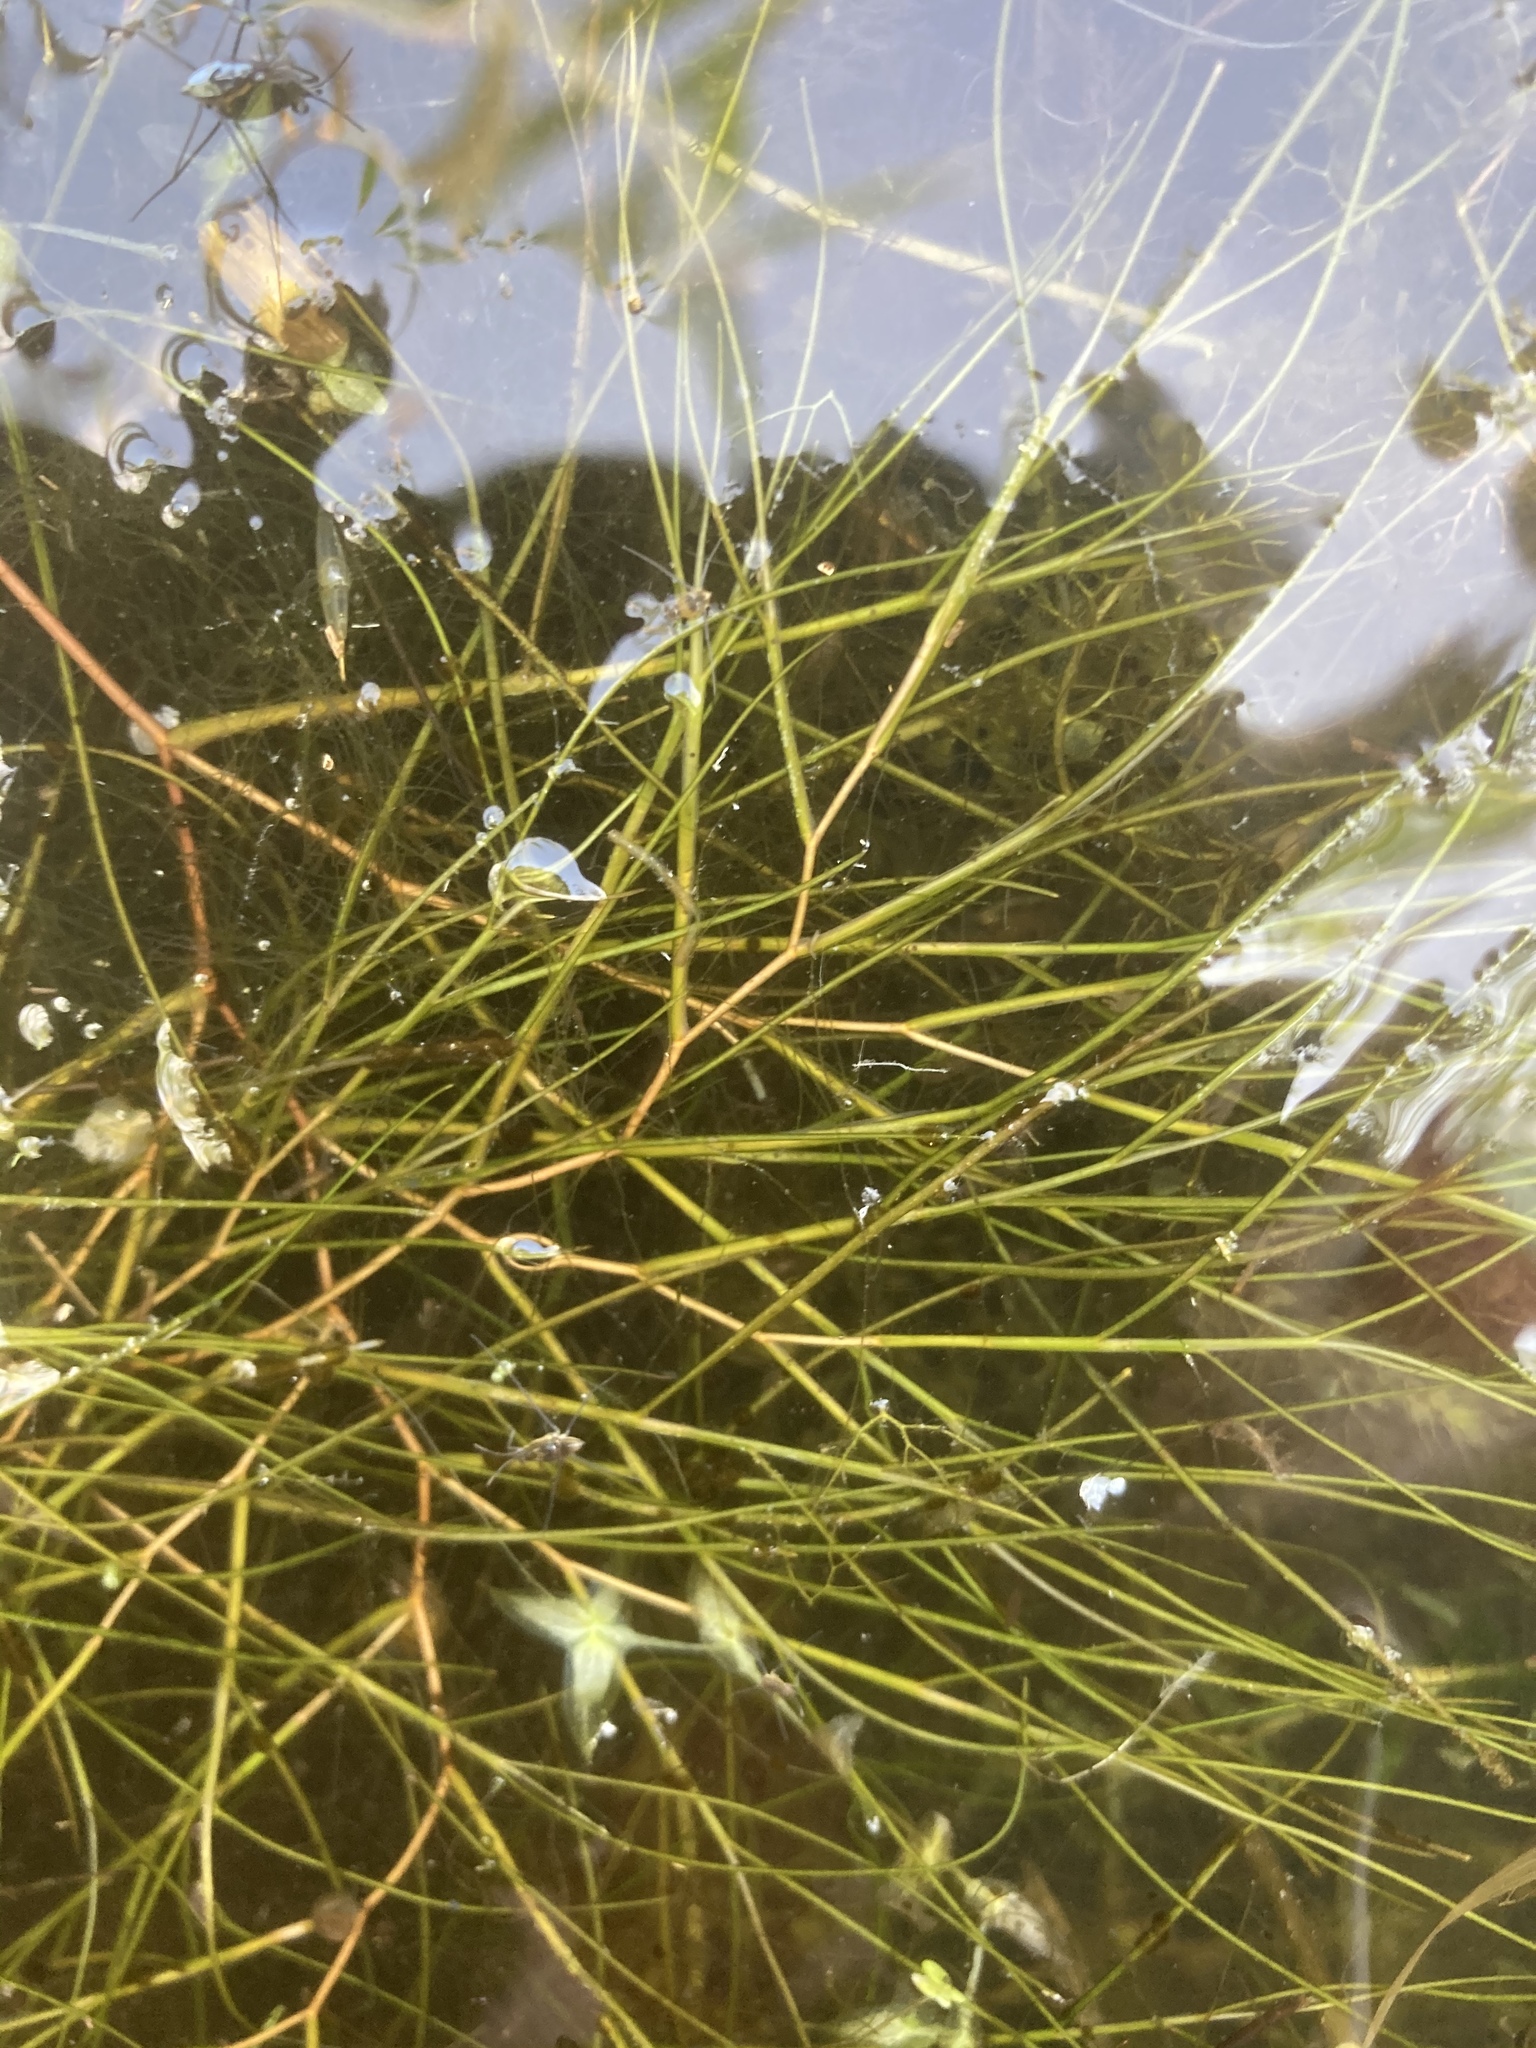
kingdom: Plantae
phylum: Tracheophyta
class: Liliopsida
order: Alismatales
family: Potamogetonaceae
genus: Stuckenia
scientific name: Stuckenia pectinata
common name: Sago pondweed
